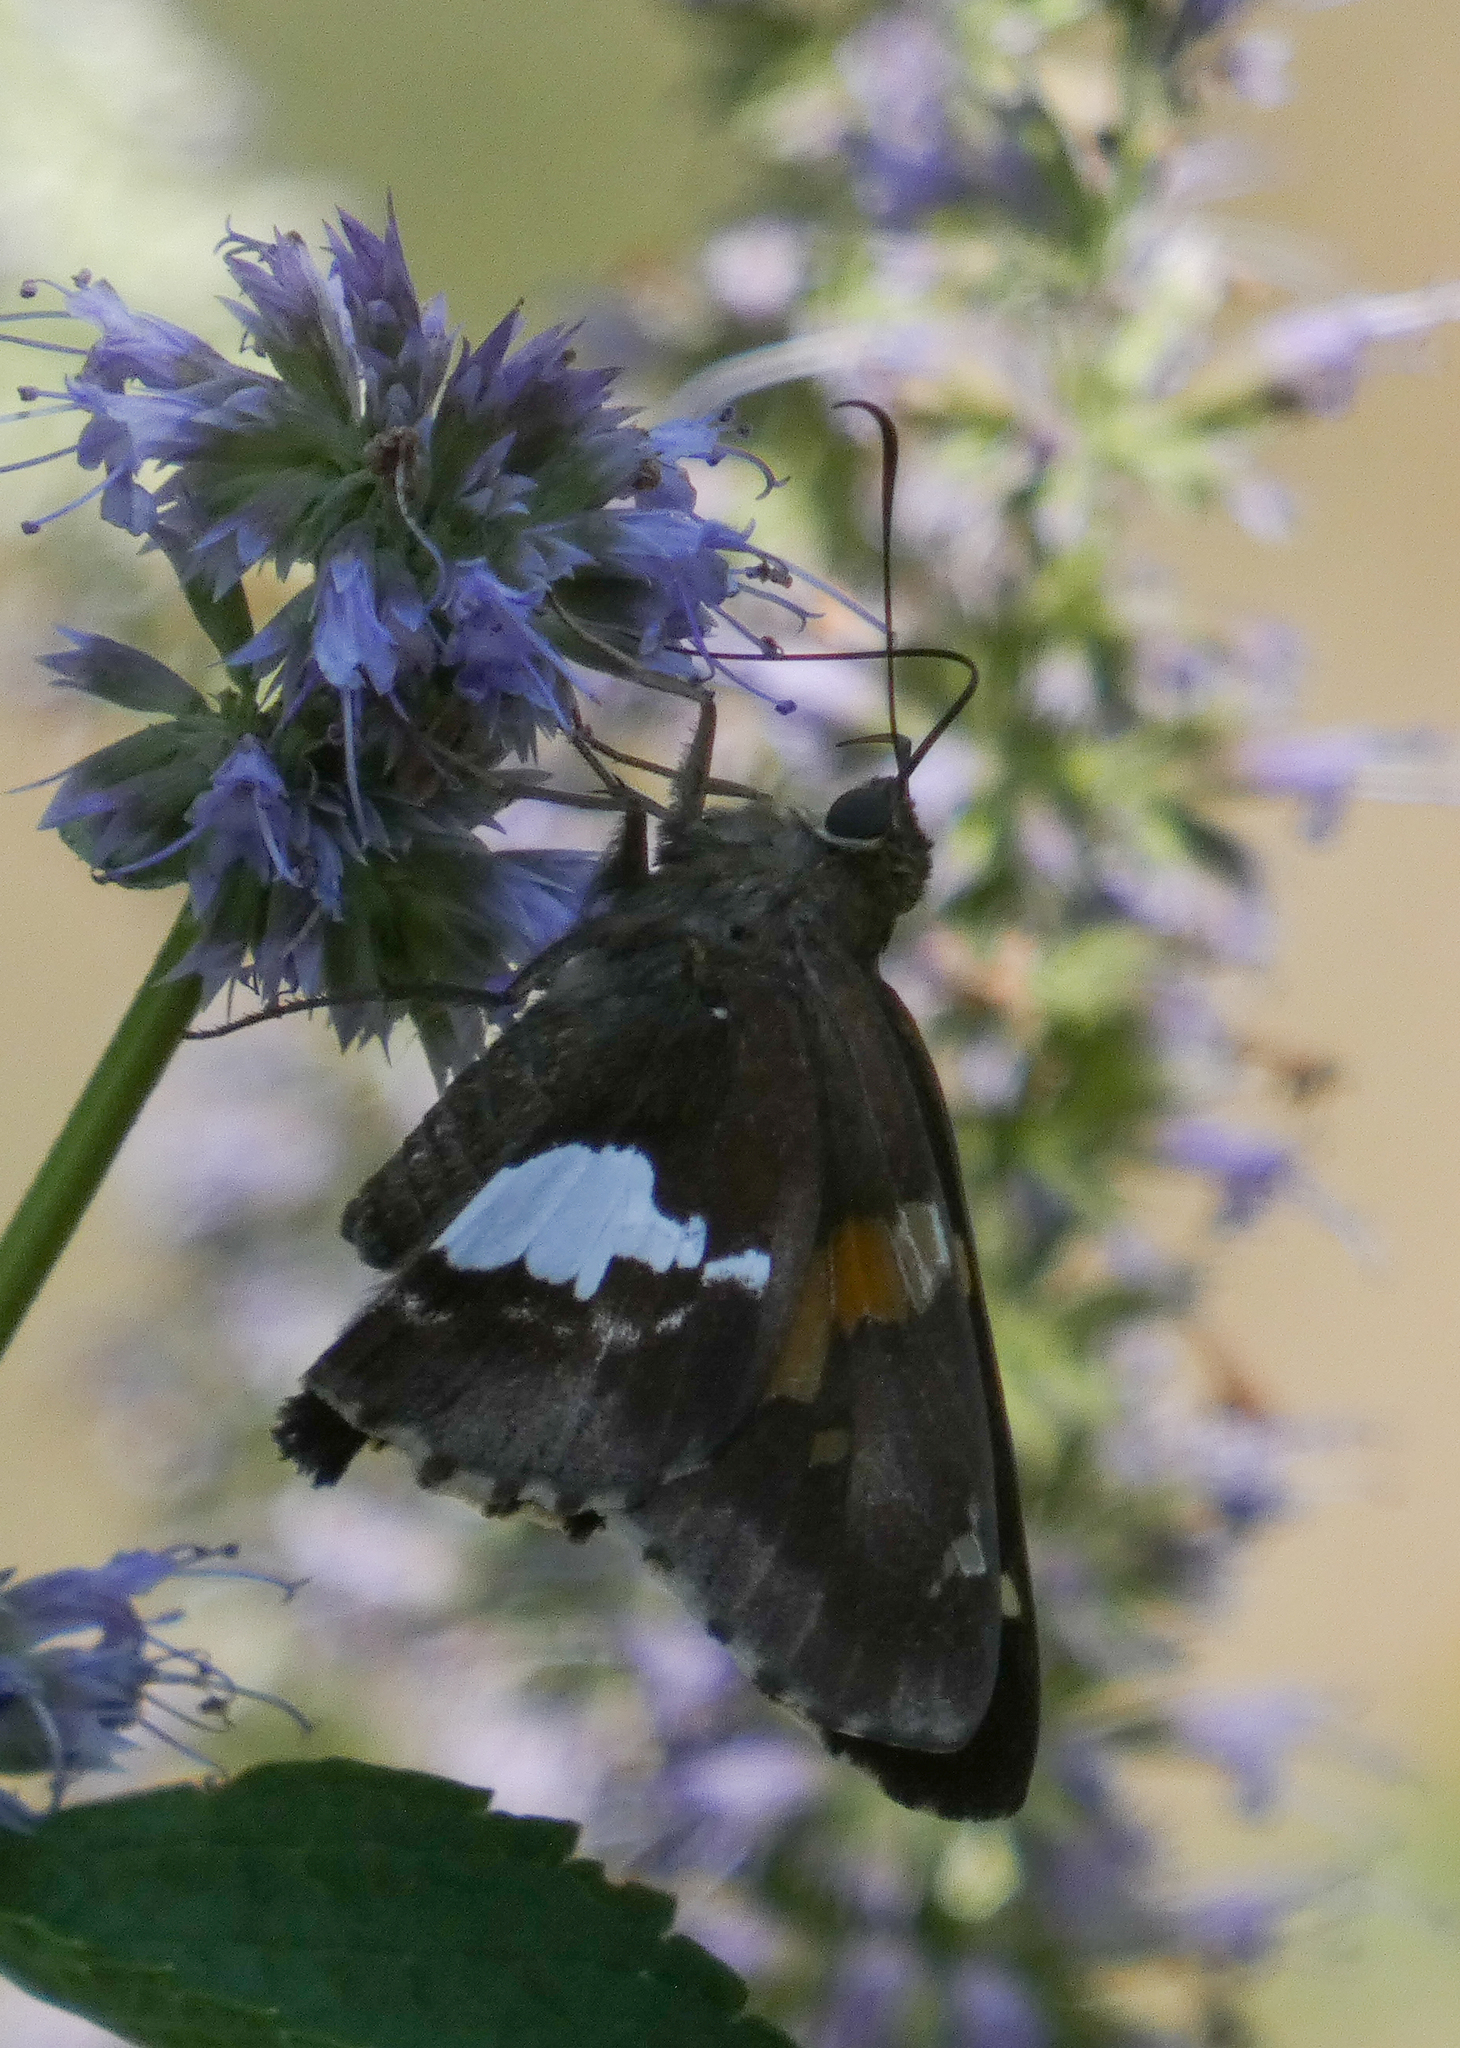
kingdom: Animalia
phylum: Arthropoda
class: Insecta
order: Lepidoptera
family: Hesperiidae
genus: Epargyreus
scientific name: Epargyreus clarus
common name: Silver-spotted skipper
